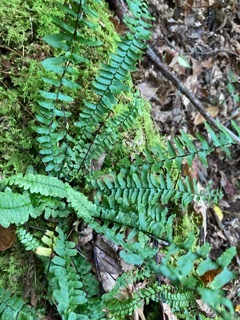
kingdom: Plantae
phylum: Tracheophyta
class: Polypodiopsida
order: Polypodiales
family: Aspleniaceae
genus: Asplenium
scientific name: Asplenium platyneuron
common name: Ebony spleenwort
